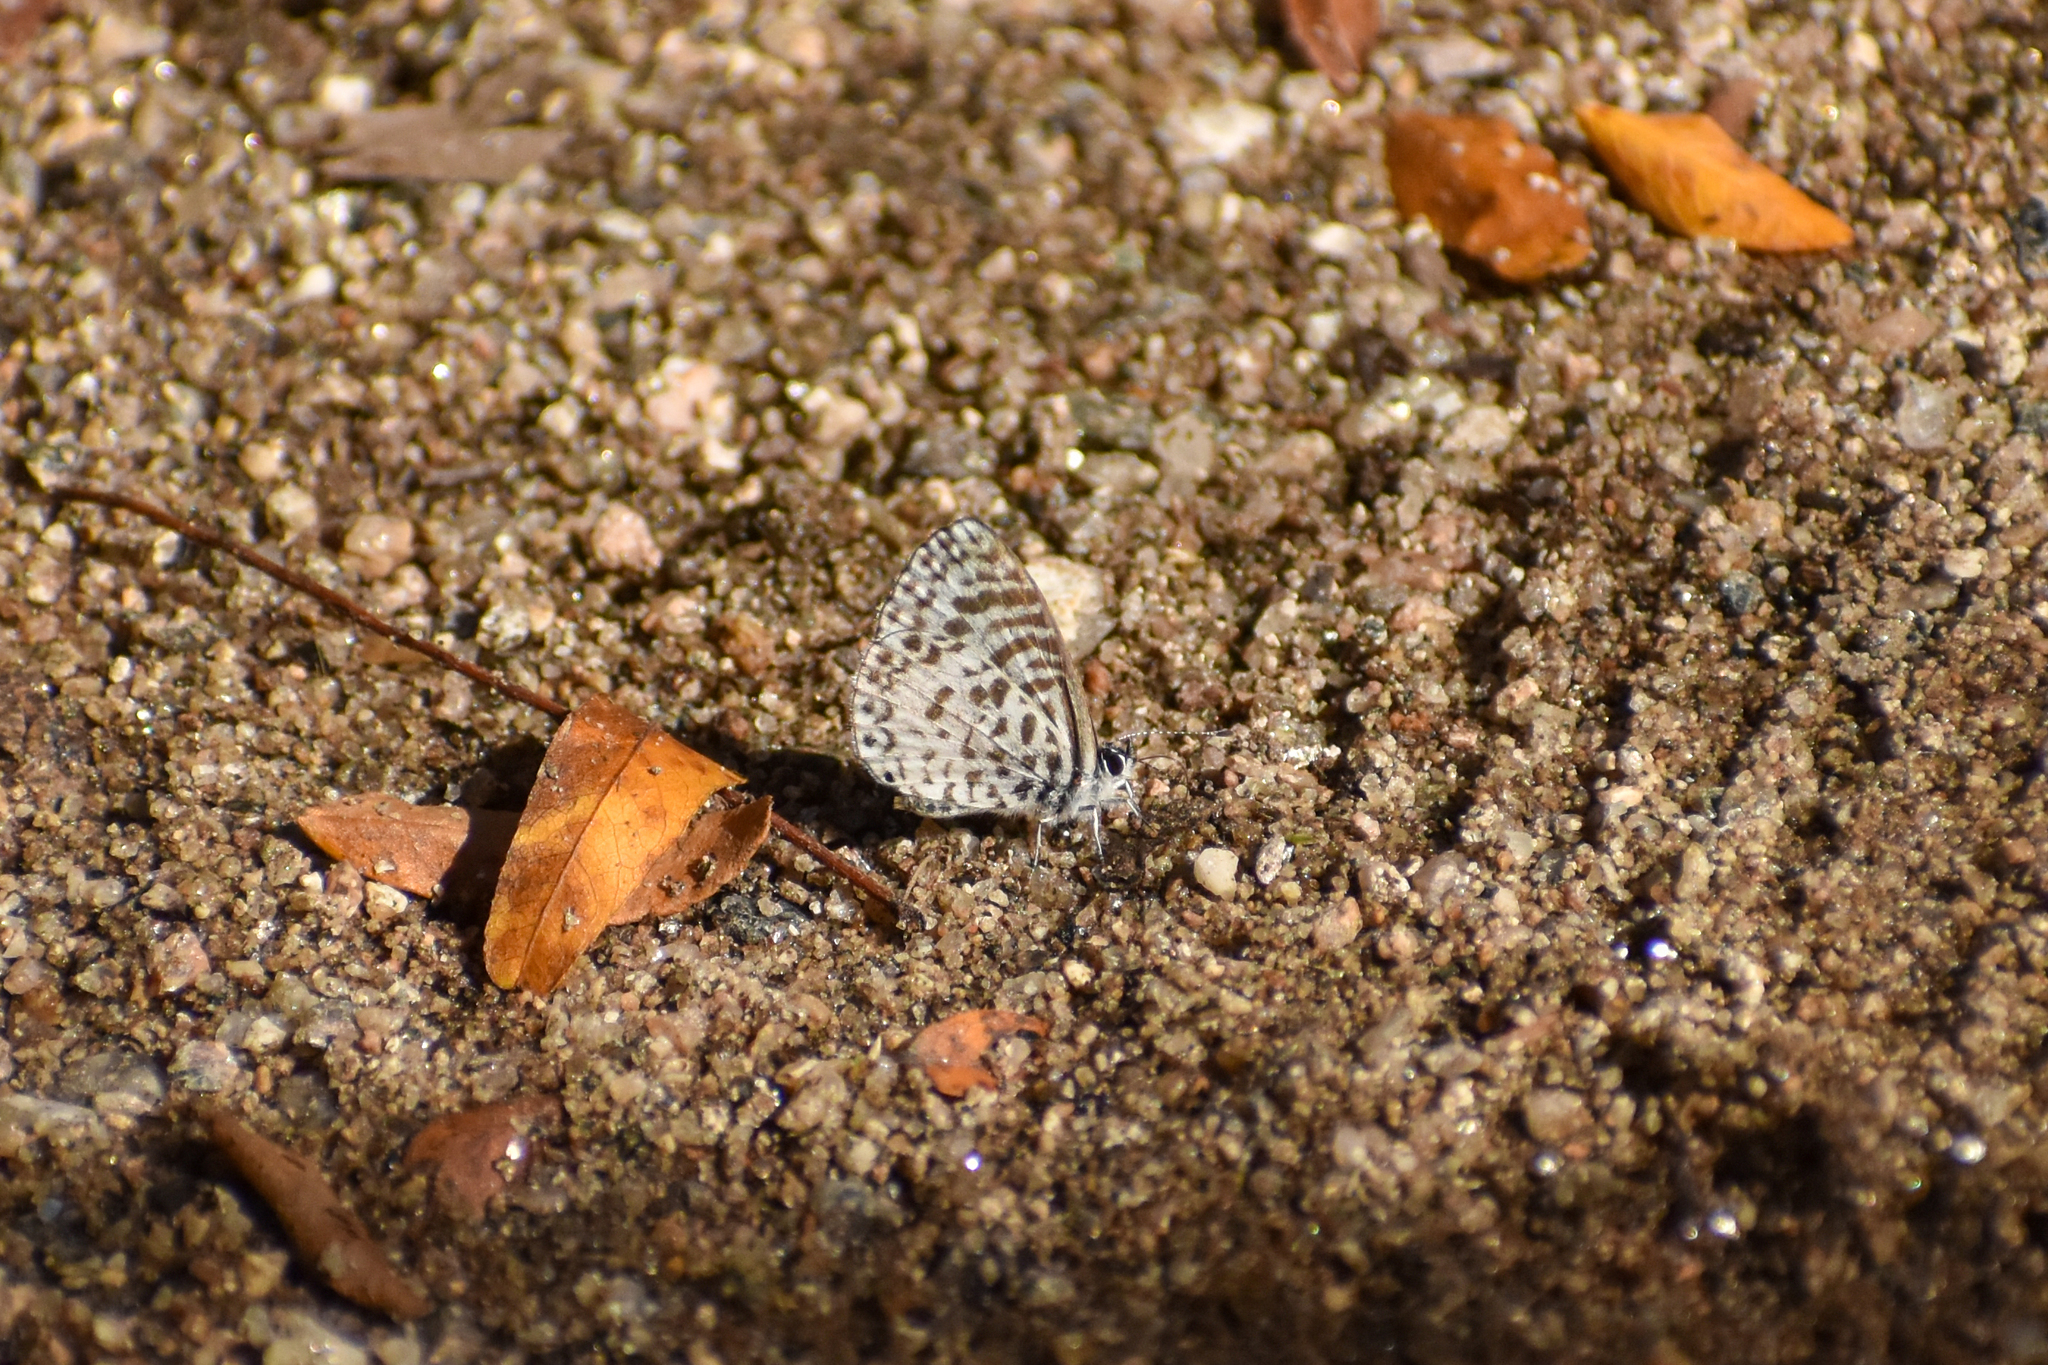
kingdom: Animalia
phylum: Arthropoda
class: Insecta
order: Lepidoptera
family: Lycaenidae
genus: Leptotes
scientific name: Leptotes cassius
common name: Cassius blue
